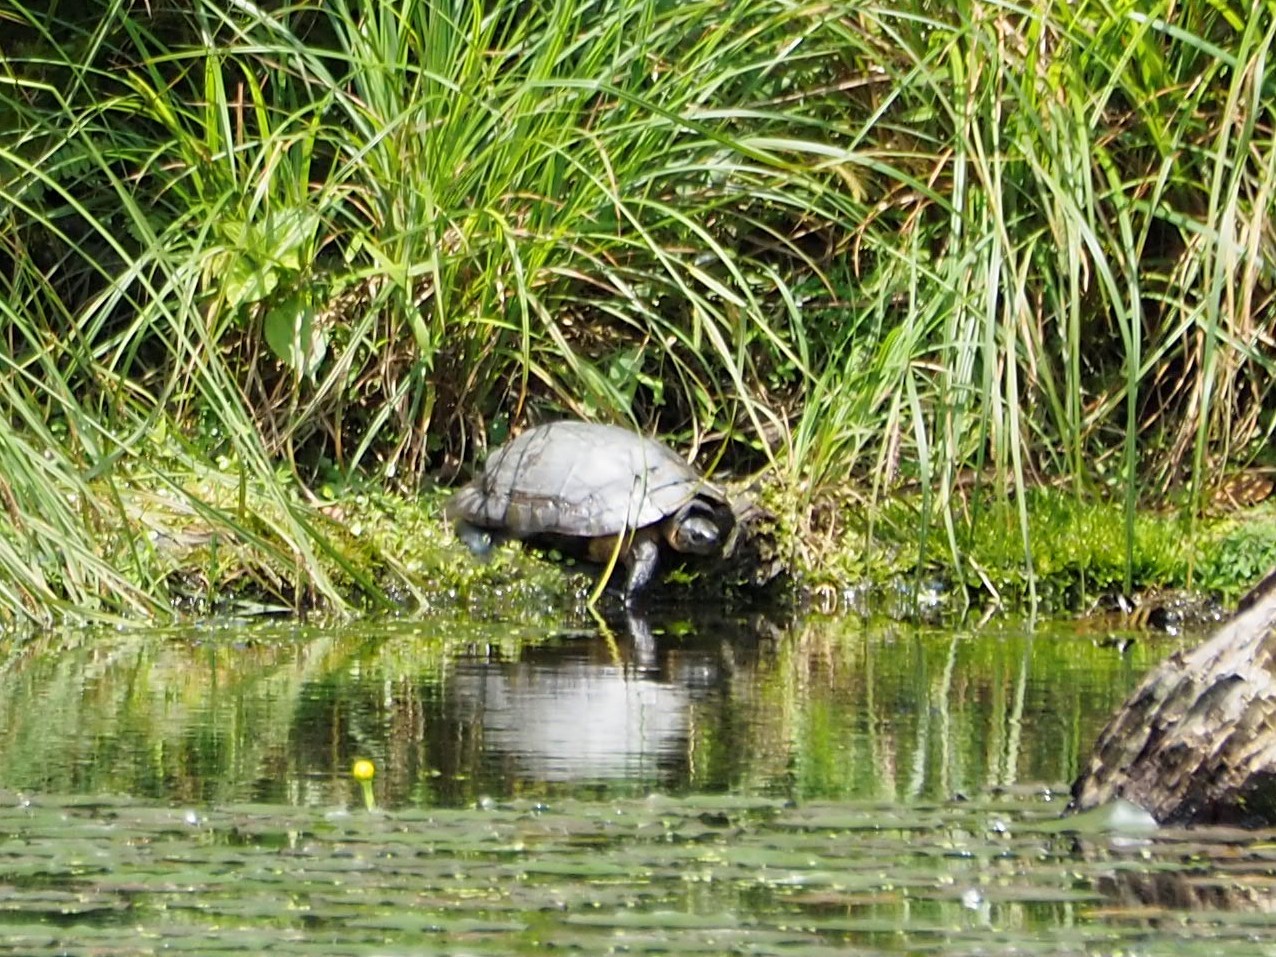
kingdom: Animalia
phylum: Chordata
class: Testudines
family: Geoemydidae
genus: Mauremys
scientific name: Mauremys mutica
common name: Yellow pond turtle
